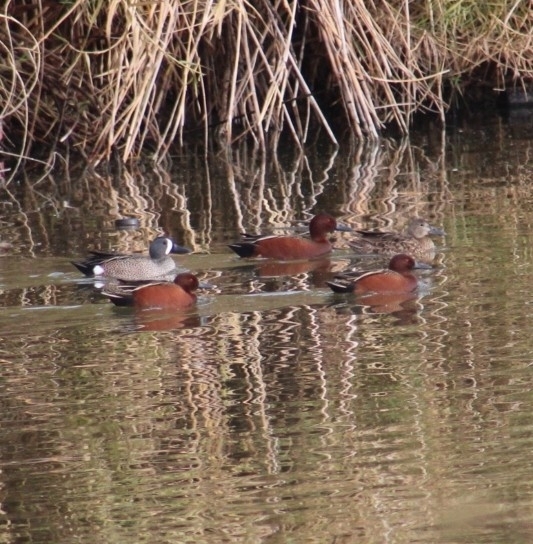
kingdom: Animalia
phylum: Chordata
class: Aves
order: Anseriformes
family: Anatidae
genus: Spatula
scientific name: Spatula cyanoptera
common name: Cinnamon teal
